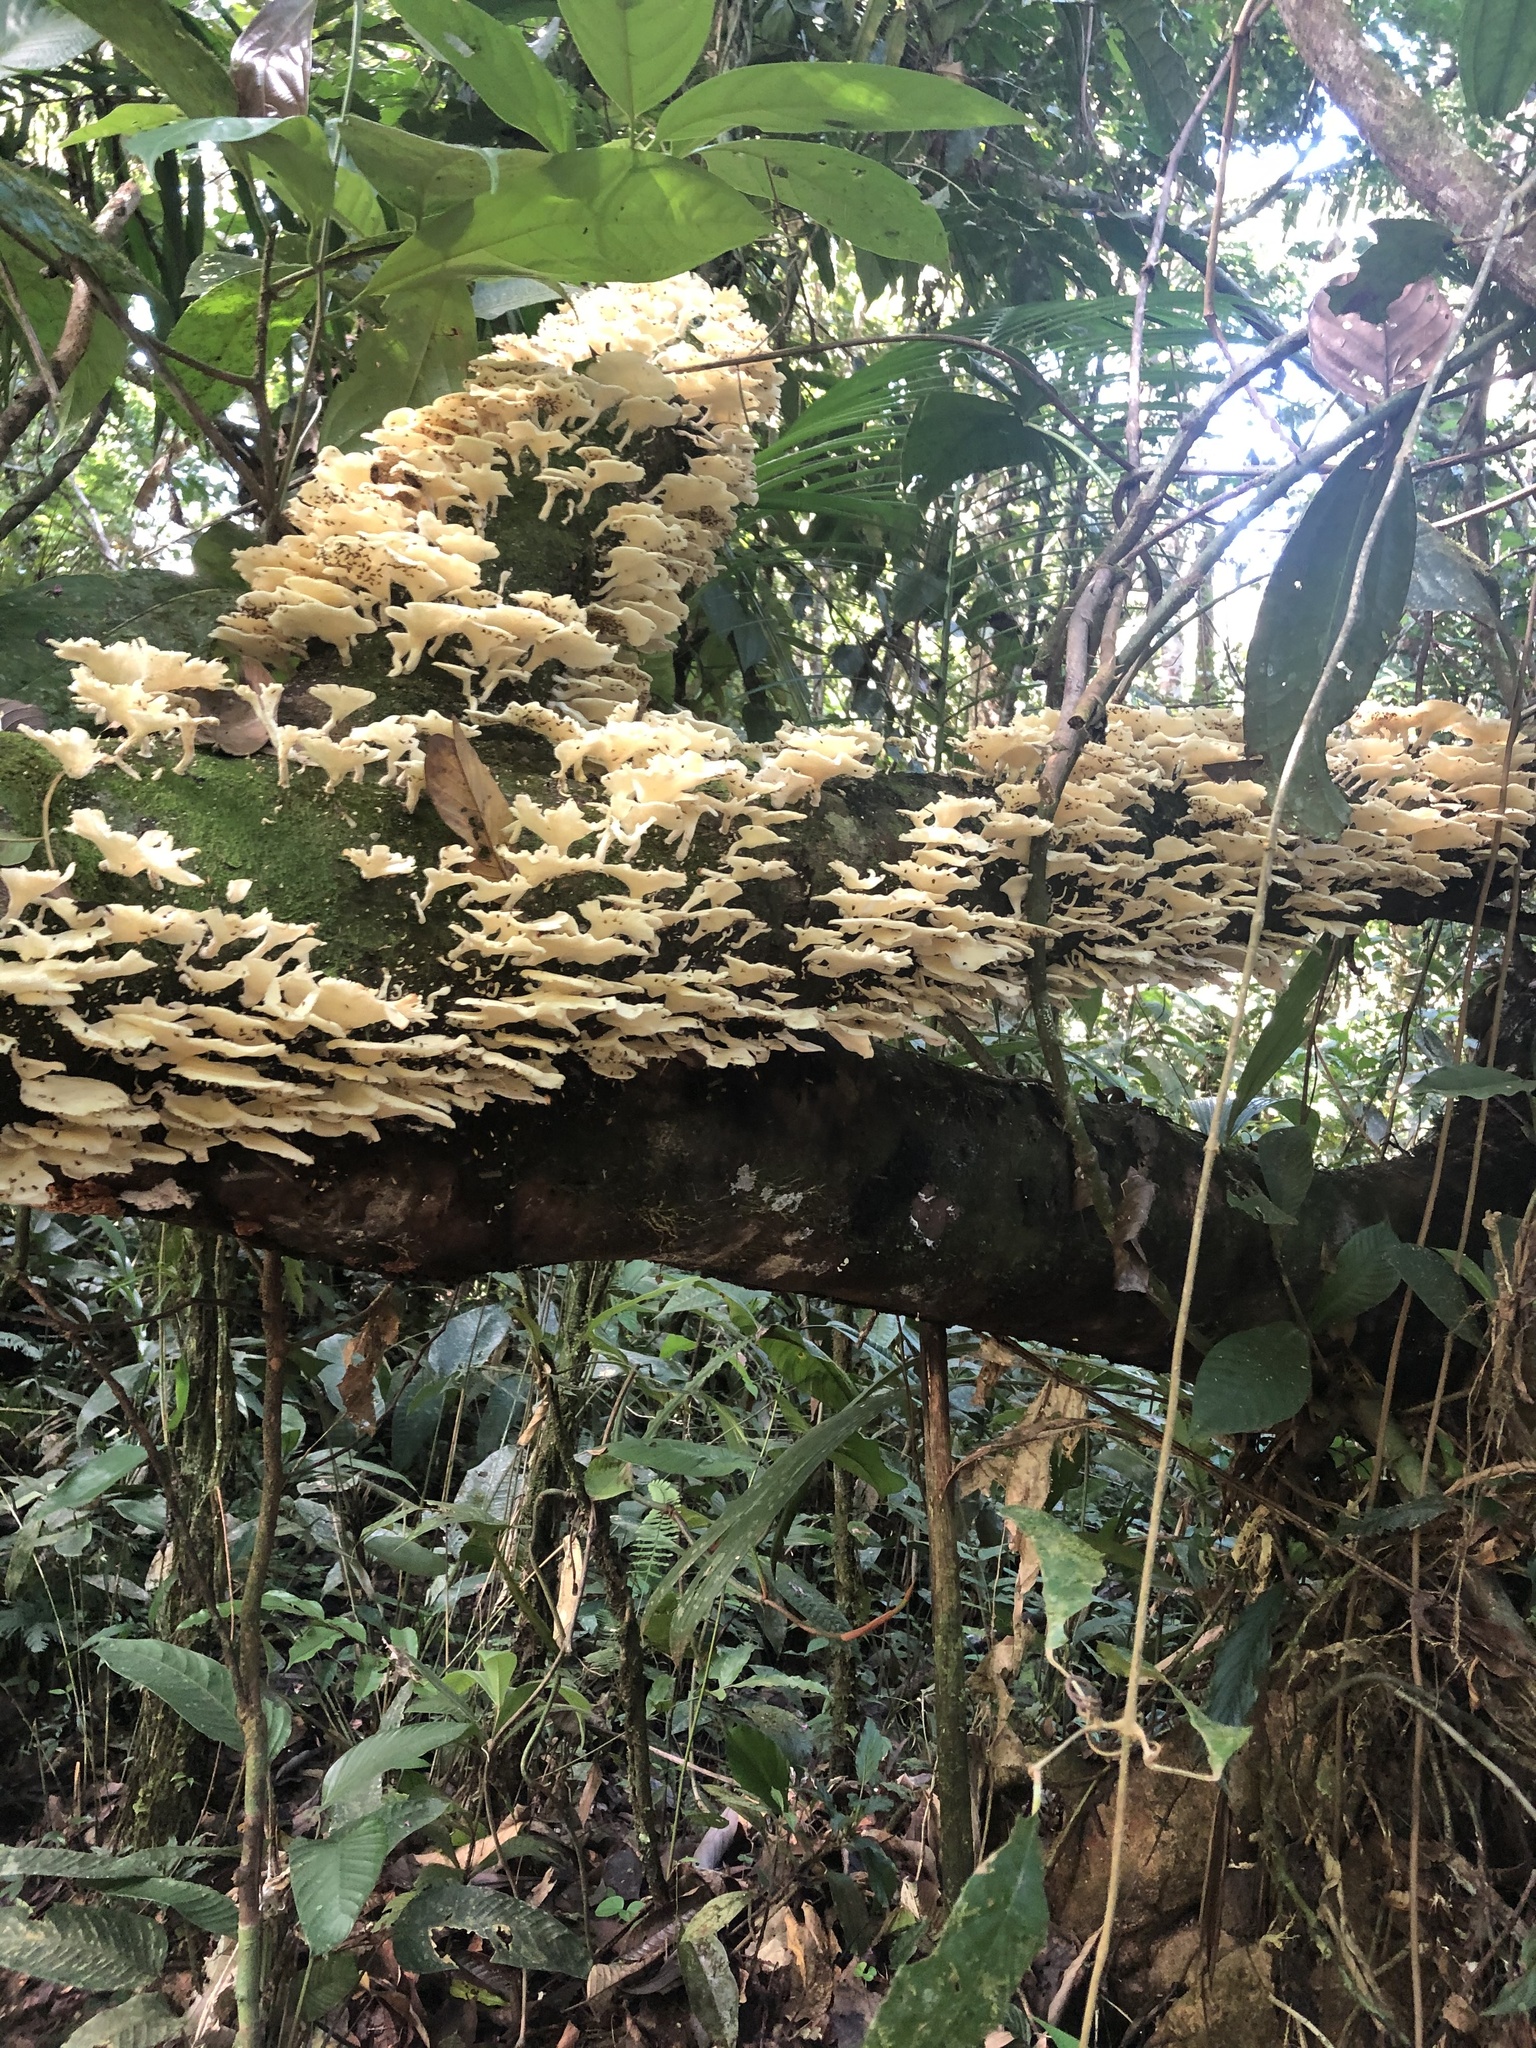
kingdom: Fungi
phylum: Basidiomycota
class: Agaricomycetes
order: Polyporales
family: Polyporaceae
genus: Favolus
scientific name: Favolus tenuiculus
